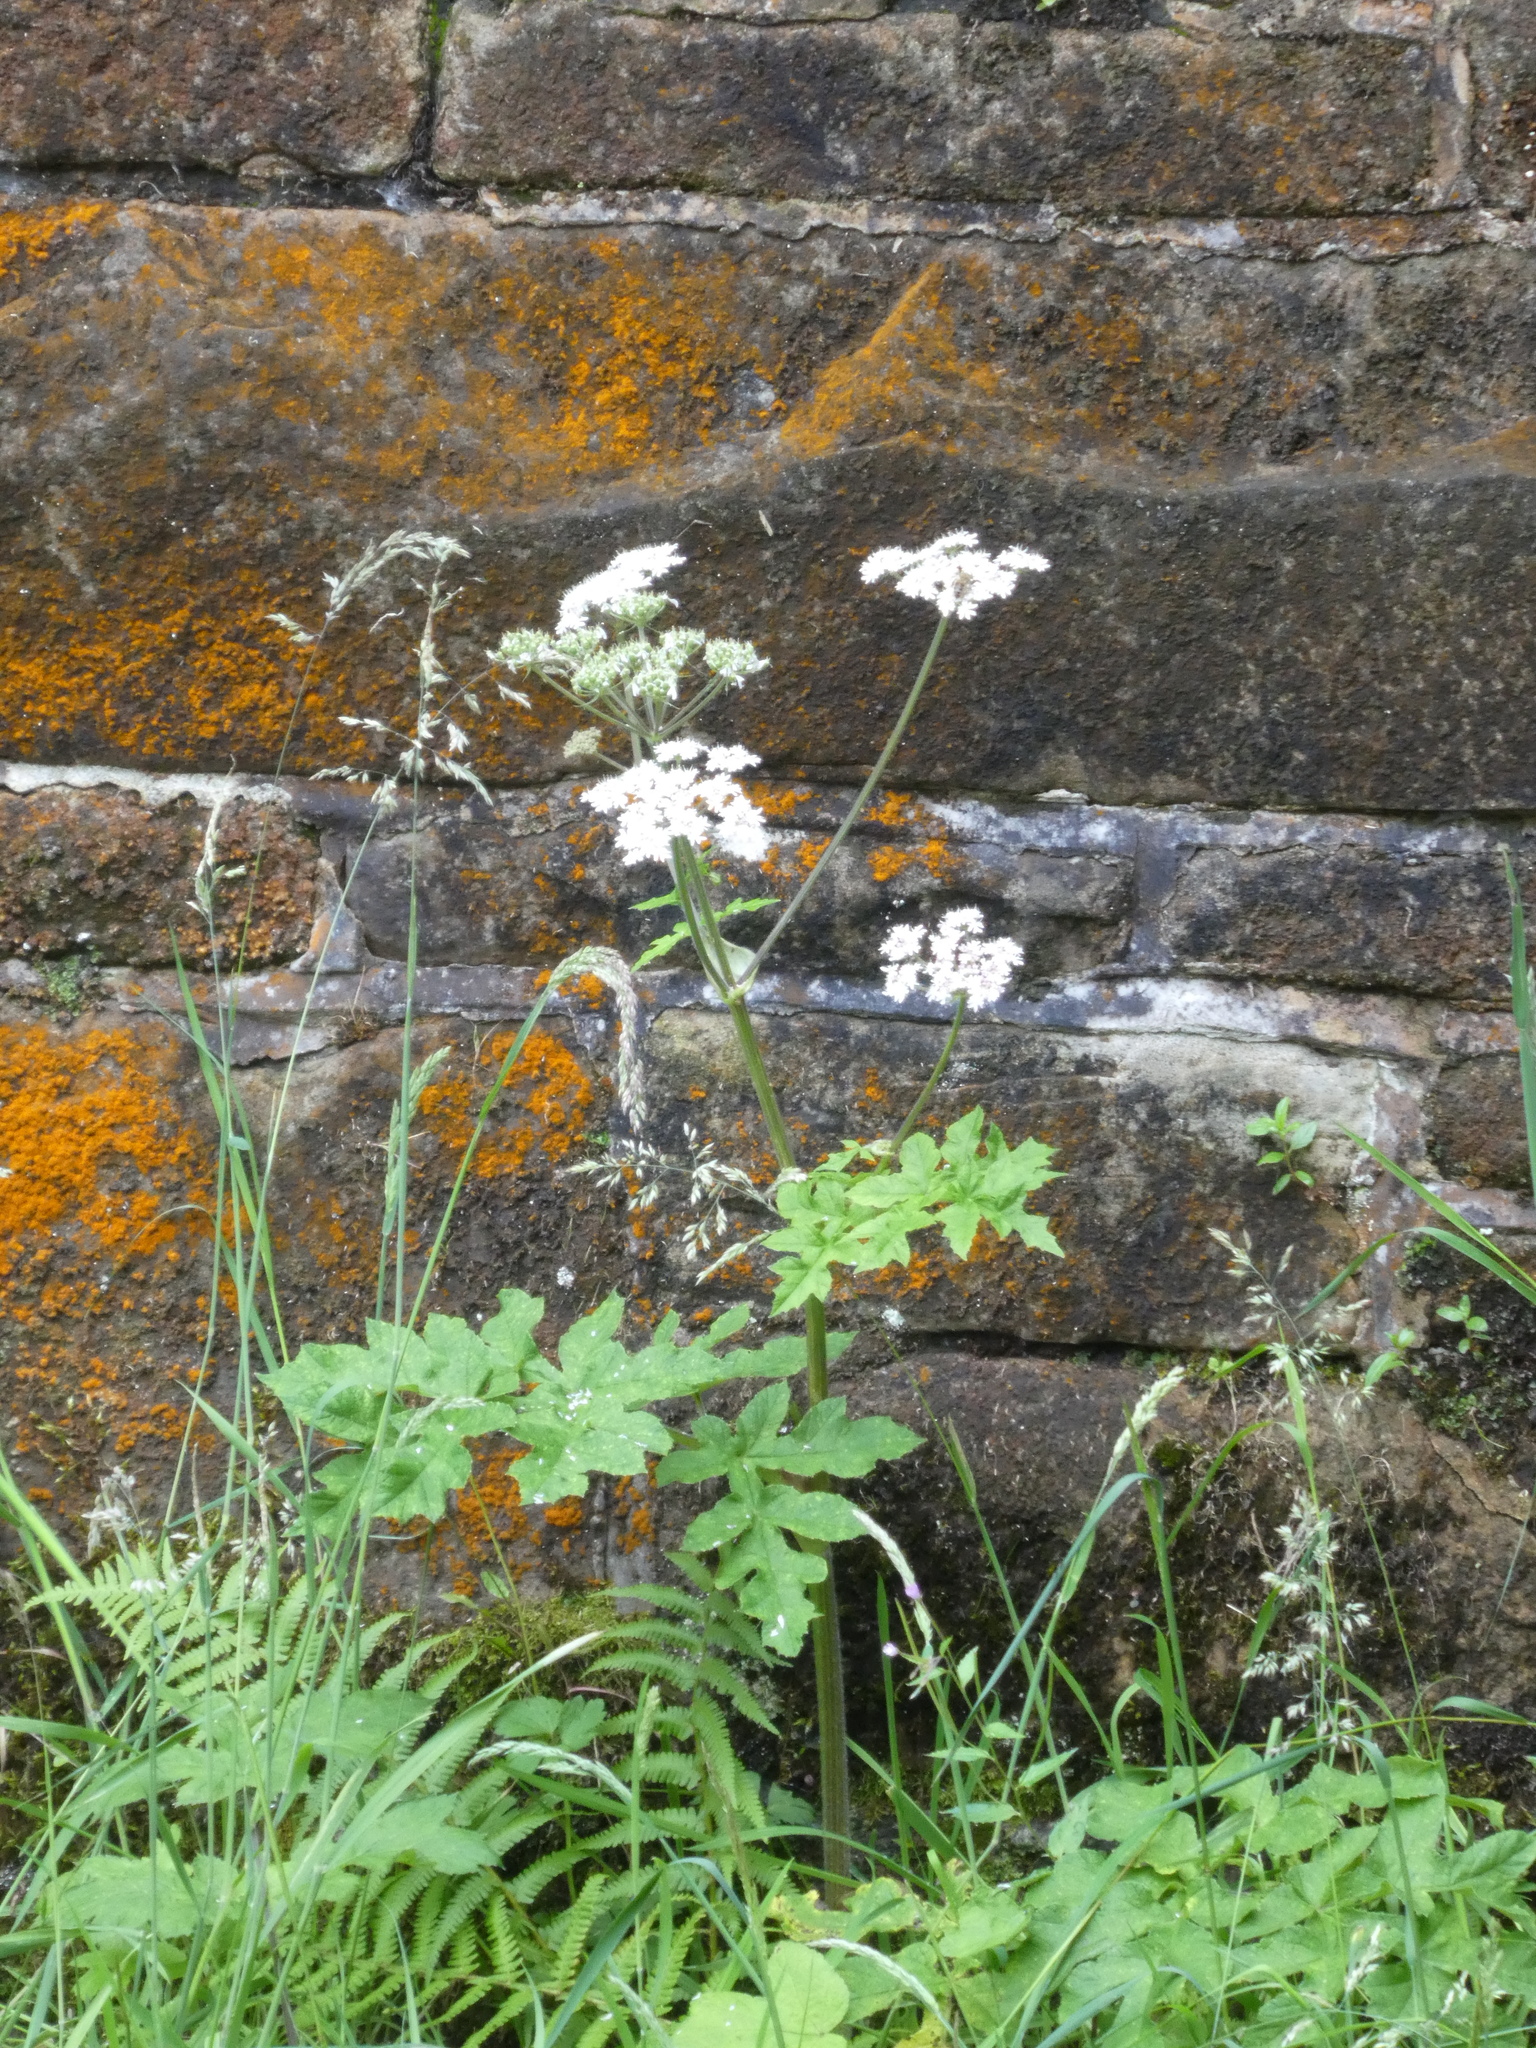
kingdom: Plantae
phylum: Tracheophyta
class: Magnoliopsida
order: Apiales
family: Apiaceae
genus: Heracleum
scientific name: Heracleum sphondylium
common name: Hogweed
